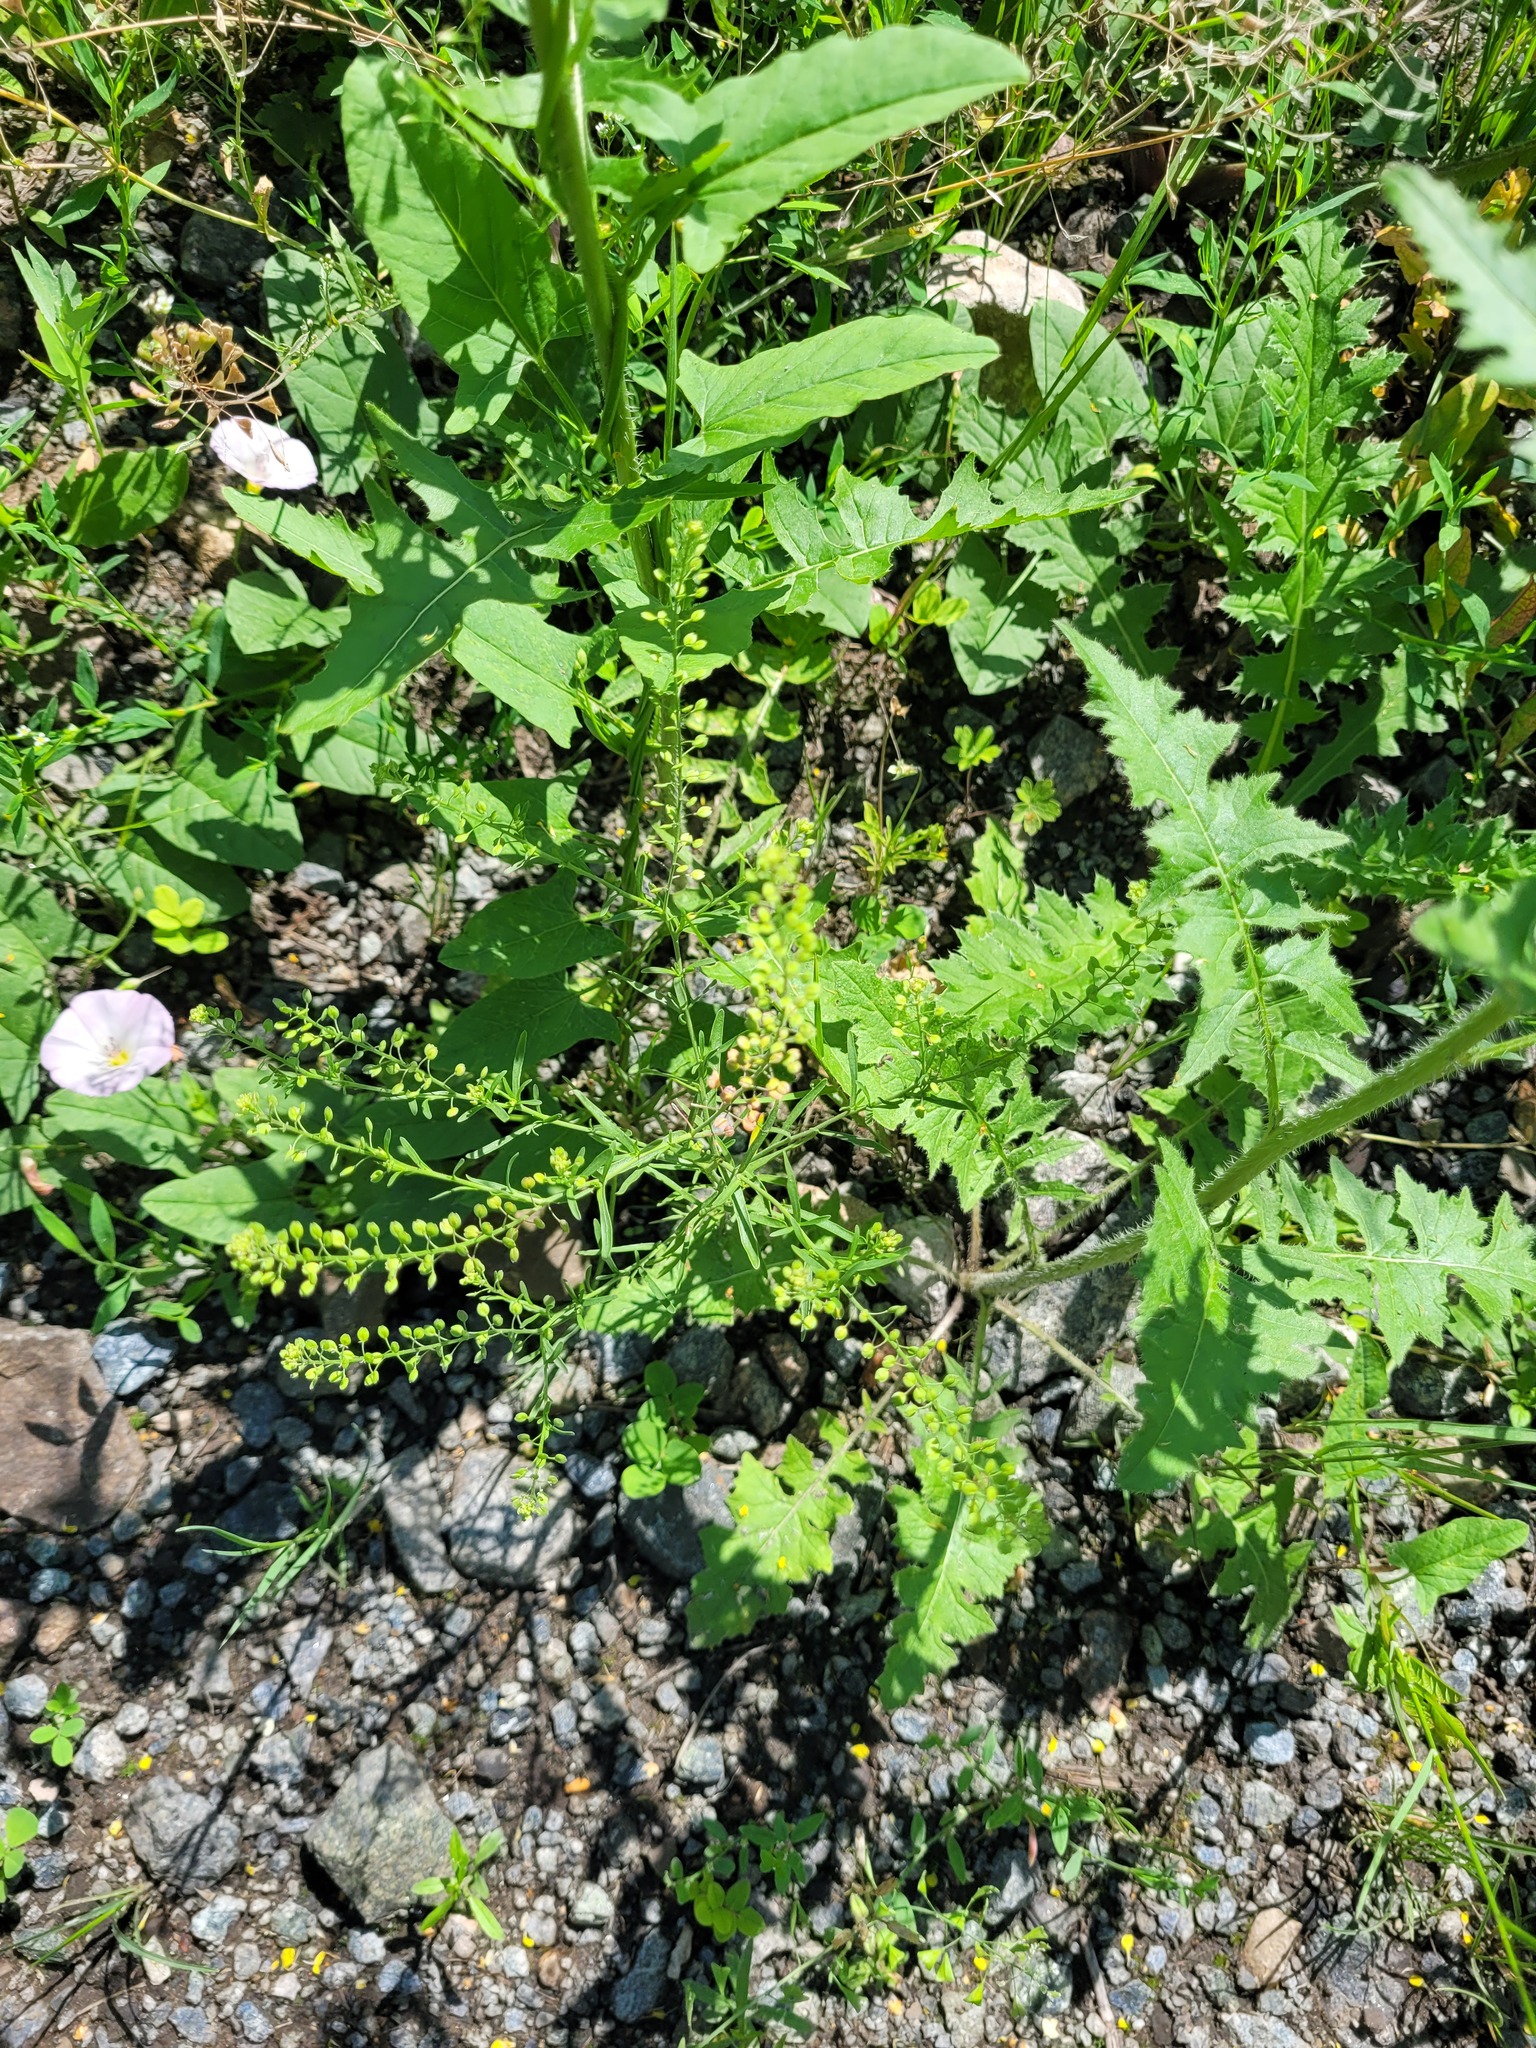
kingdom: Plantae
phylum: Tracheophyta
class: Magnoliopsida
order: Brassicales
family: Brassicaceae
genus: Lepidium
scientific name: Lepidium ruderale
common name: Narrow-leaved pepperwort
